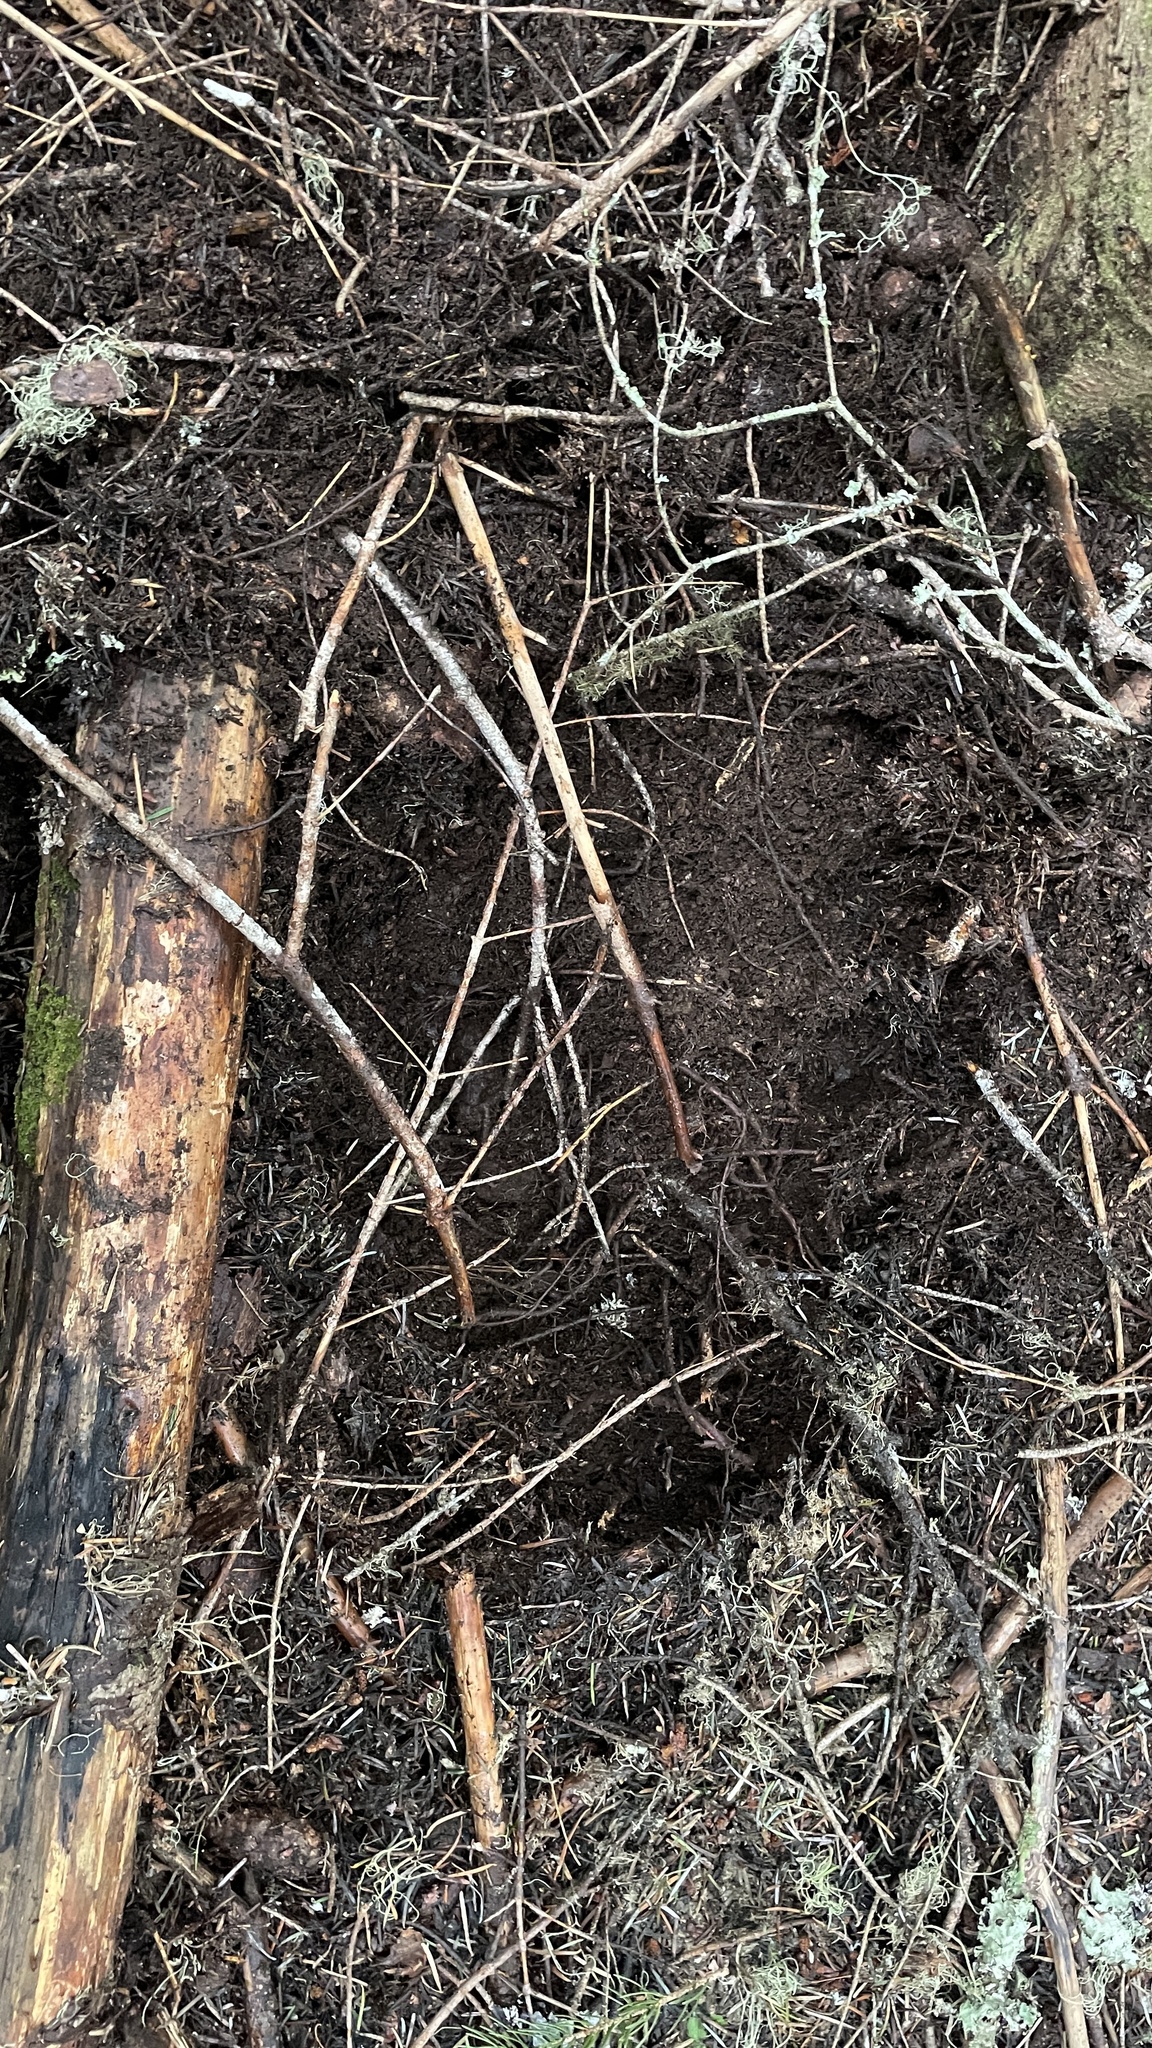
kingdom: Fungi
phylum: Ascomycota
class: Pezizomycetes
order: Pezizales
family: Morchellaceae
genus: Leucangium
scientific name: Leucangium carthusianum
